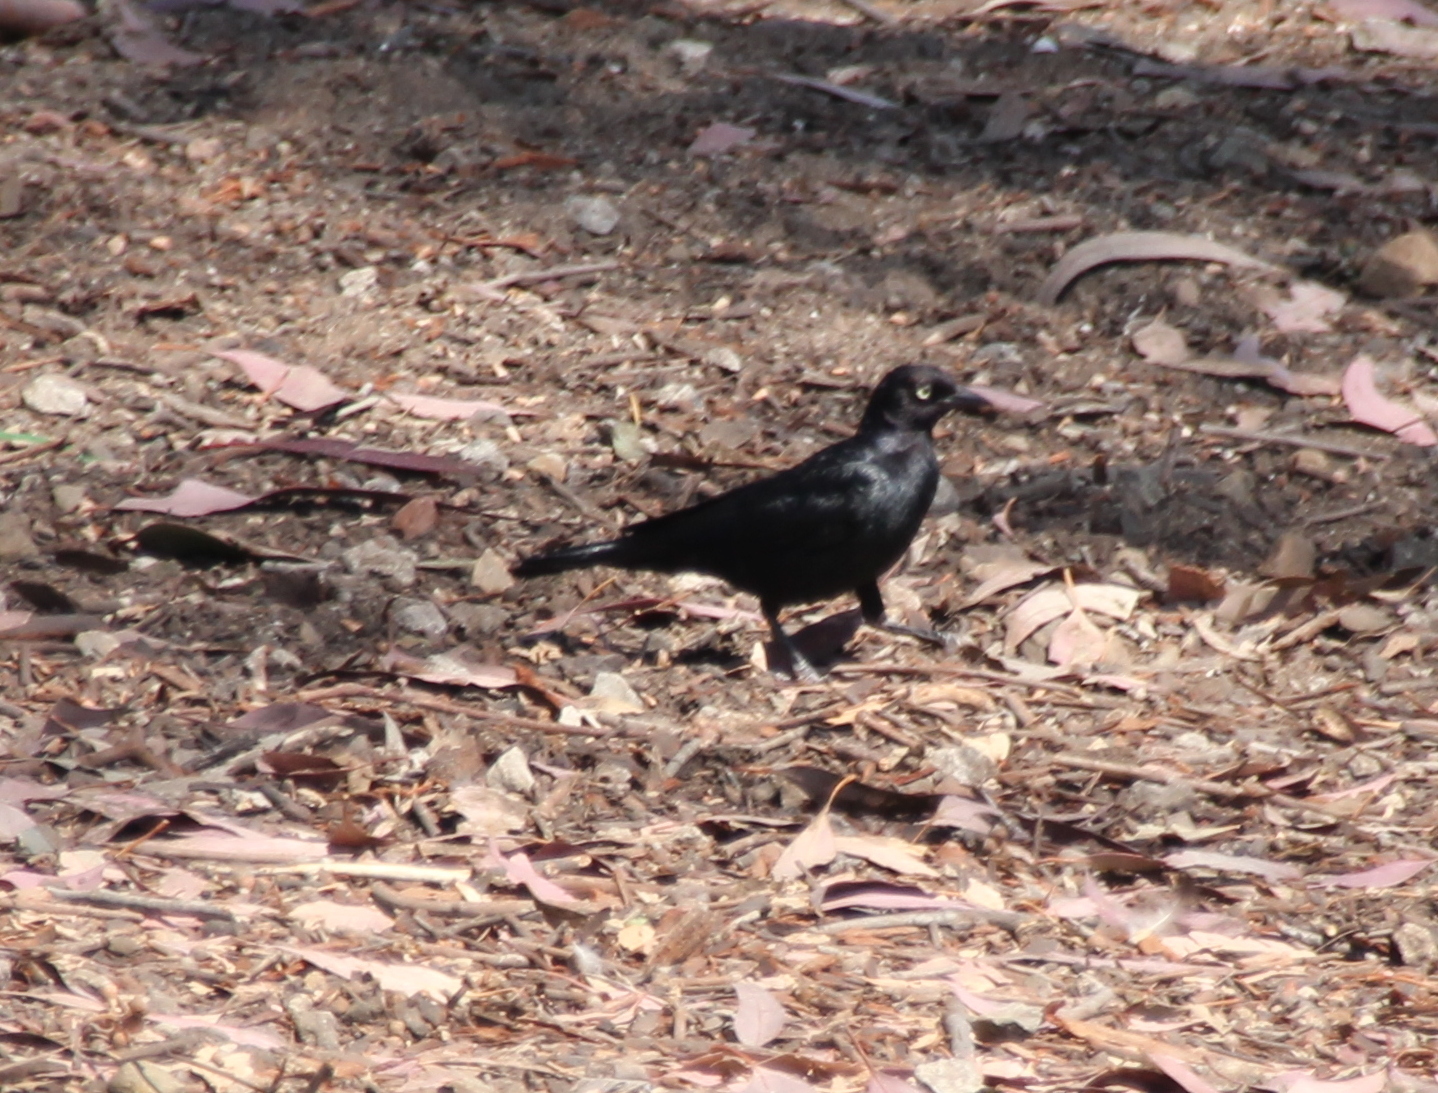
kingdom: Animalia
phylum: Chordata
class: Aves
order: Passeriformes
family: Icteridae
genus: Euphagus
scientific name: Euphagus cyanocephalus
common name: Brewer's blackbird
